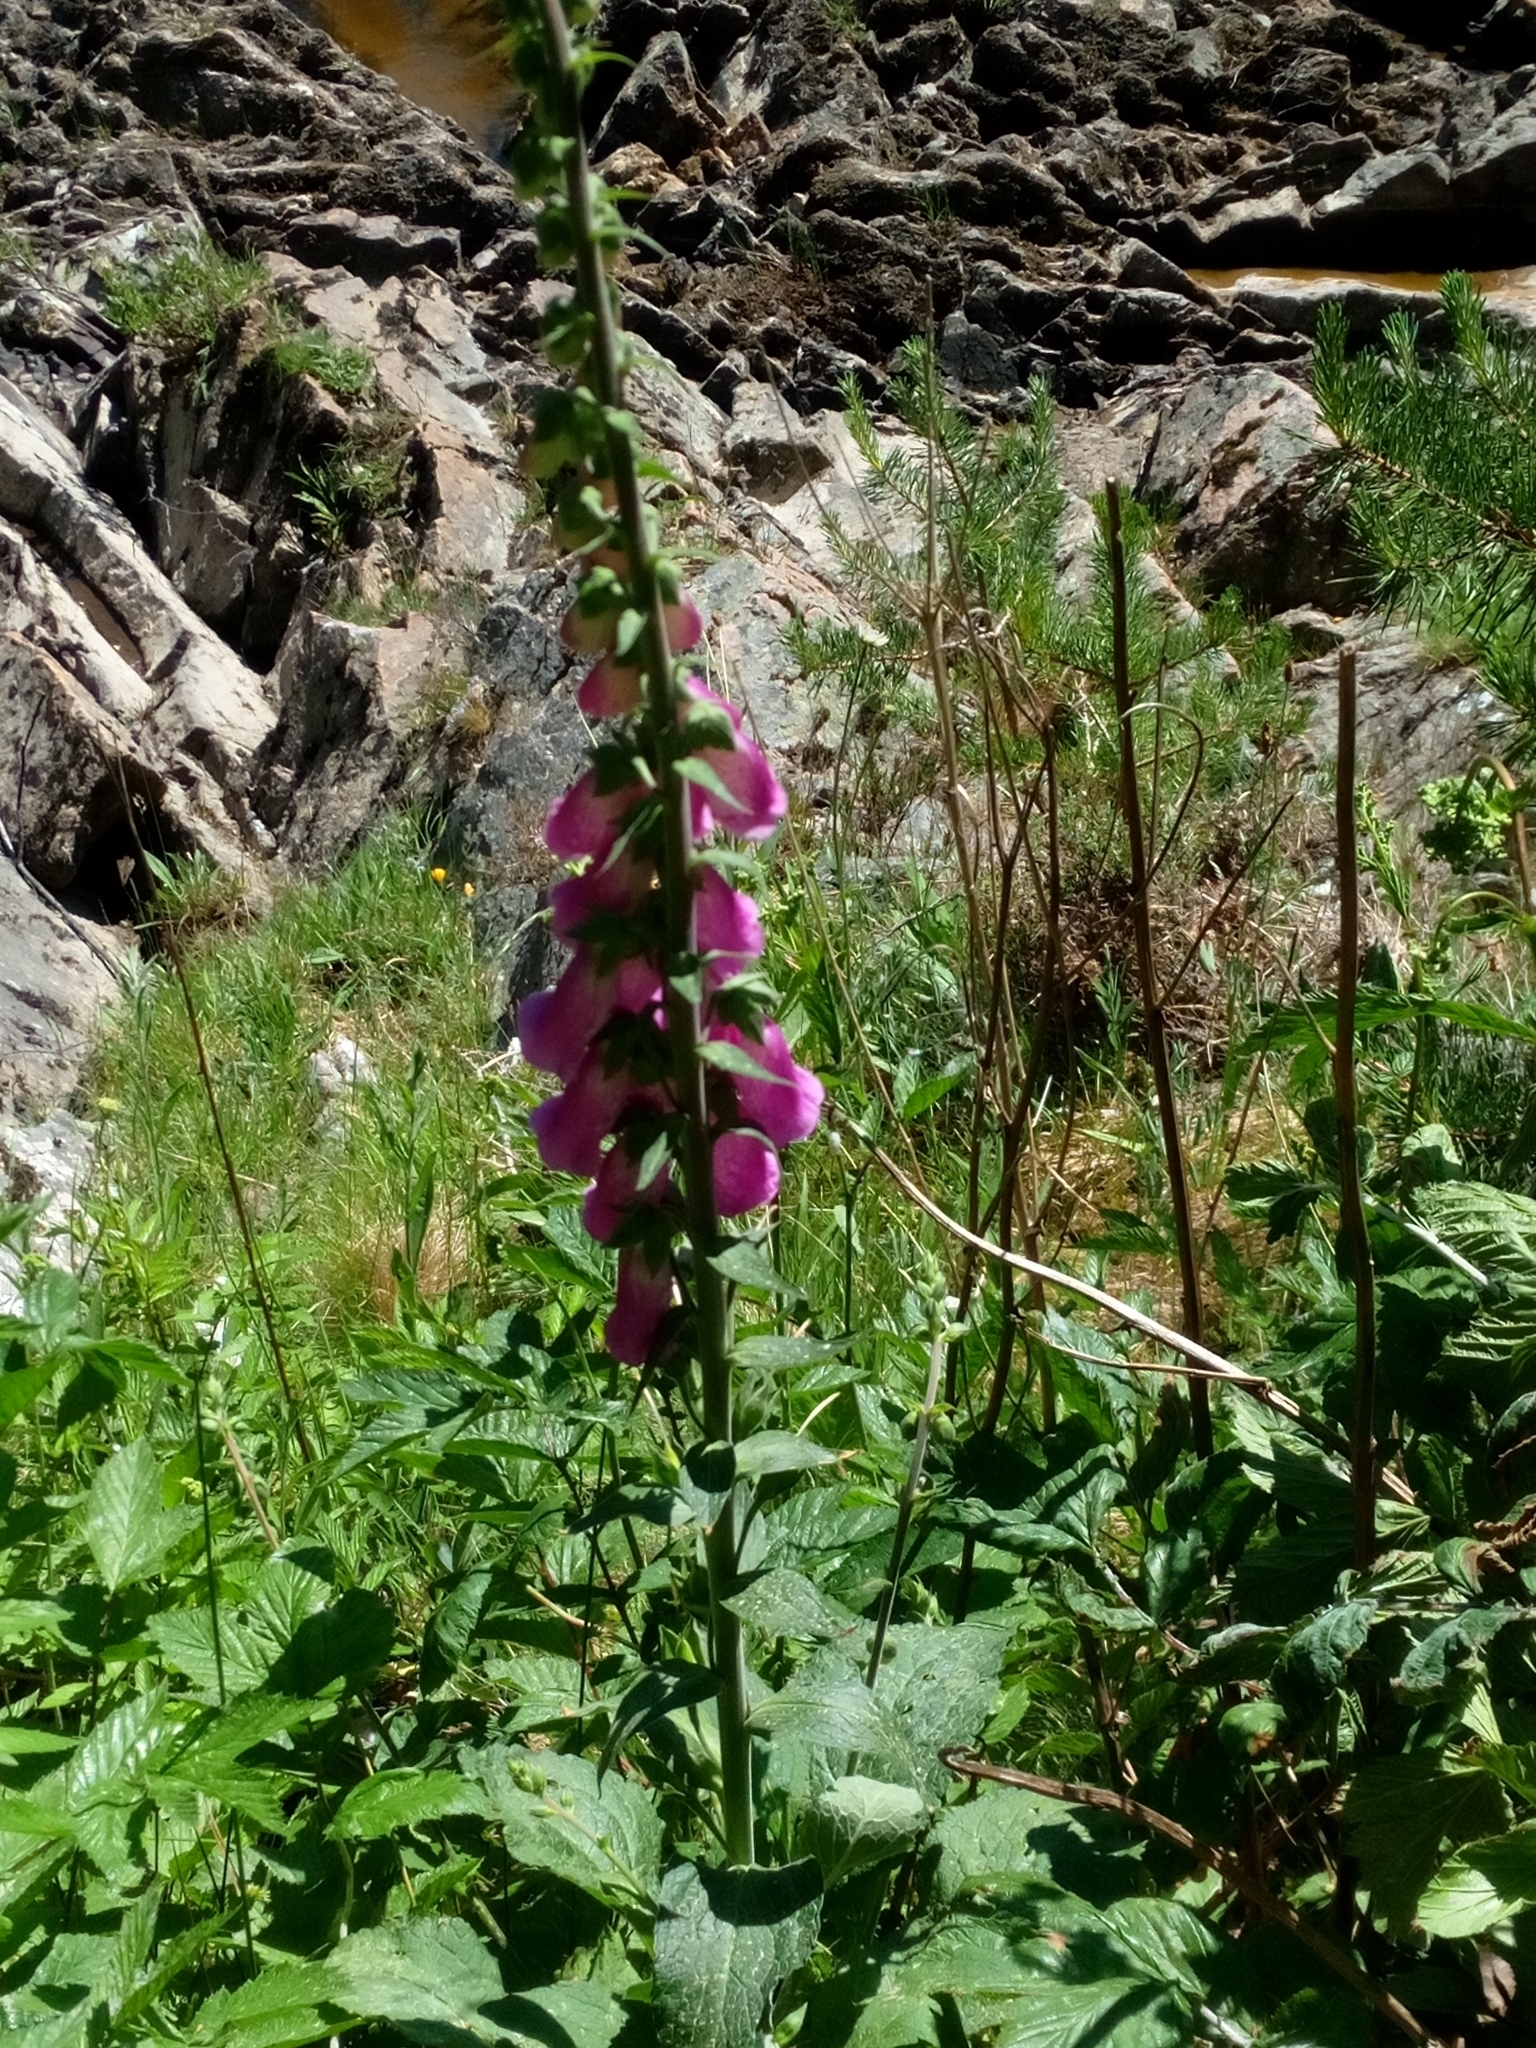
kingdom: Plantae
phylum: Tracheophyta
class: Magnoliopsida
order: Lamiales
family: Plantaginaceae
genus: Digitalis
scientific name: Digitalis purpurea
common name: Foxglove
